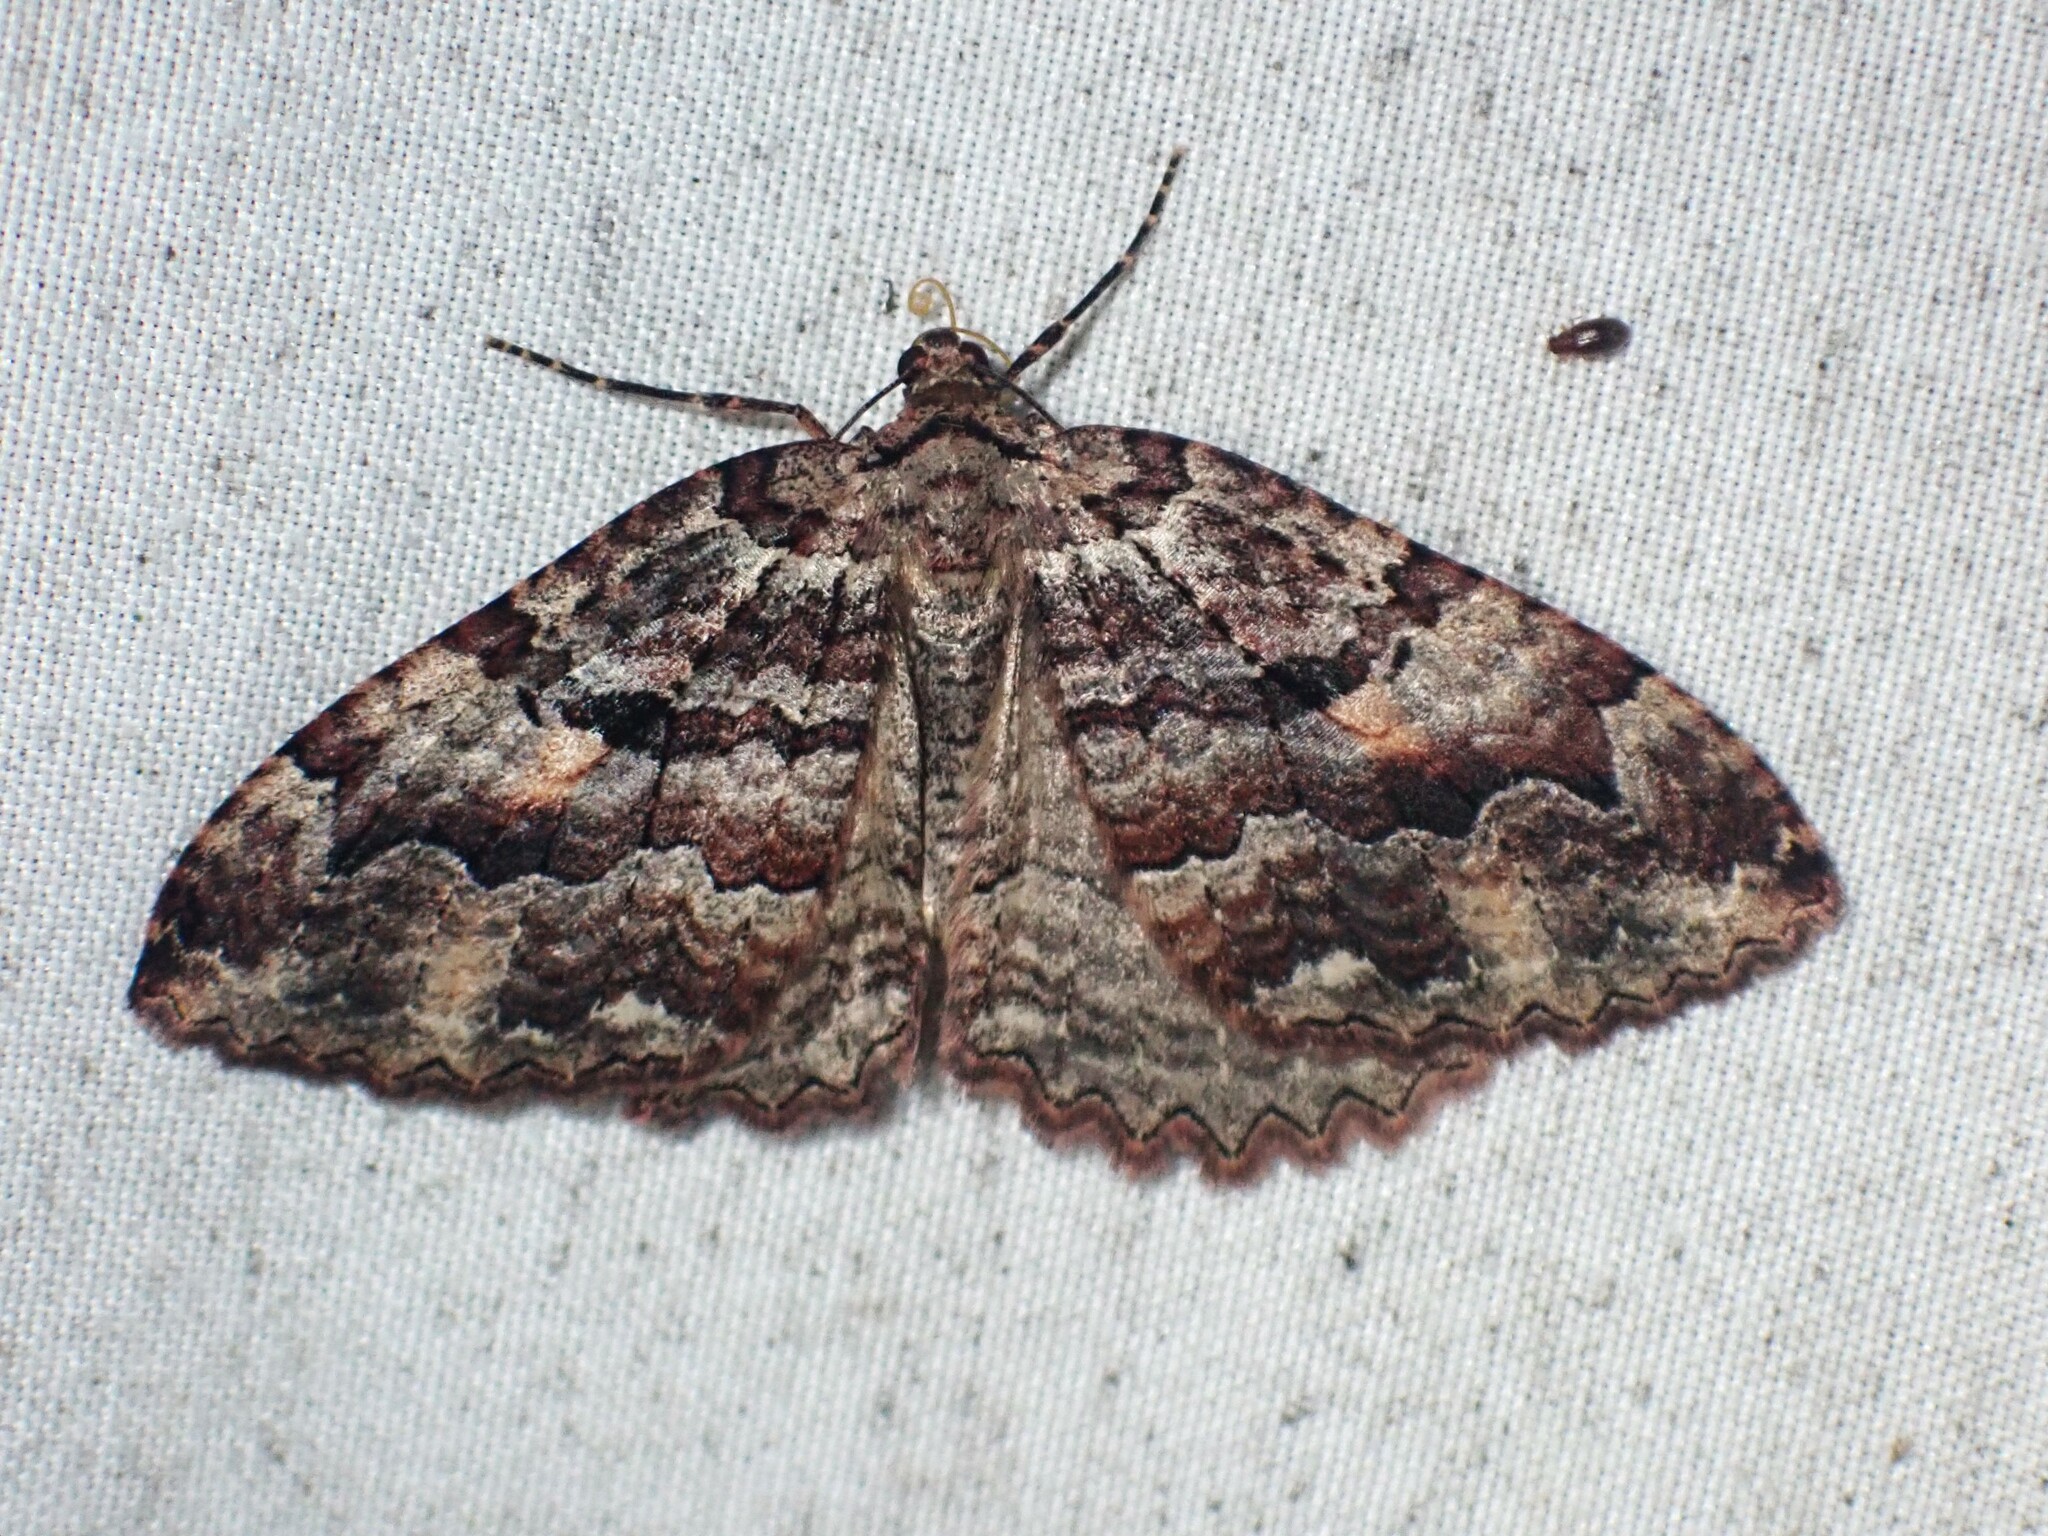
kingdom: Animalia
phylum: Arthropoda
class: Insecta
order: Lepidoptera
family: Geometridae
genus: Triphosa
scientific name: Triphosa haesitata
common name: Tissue moth
